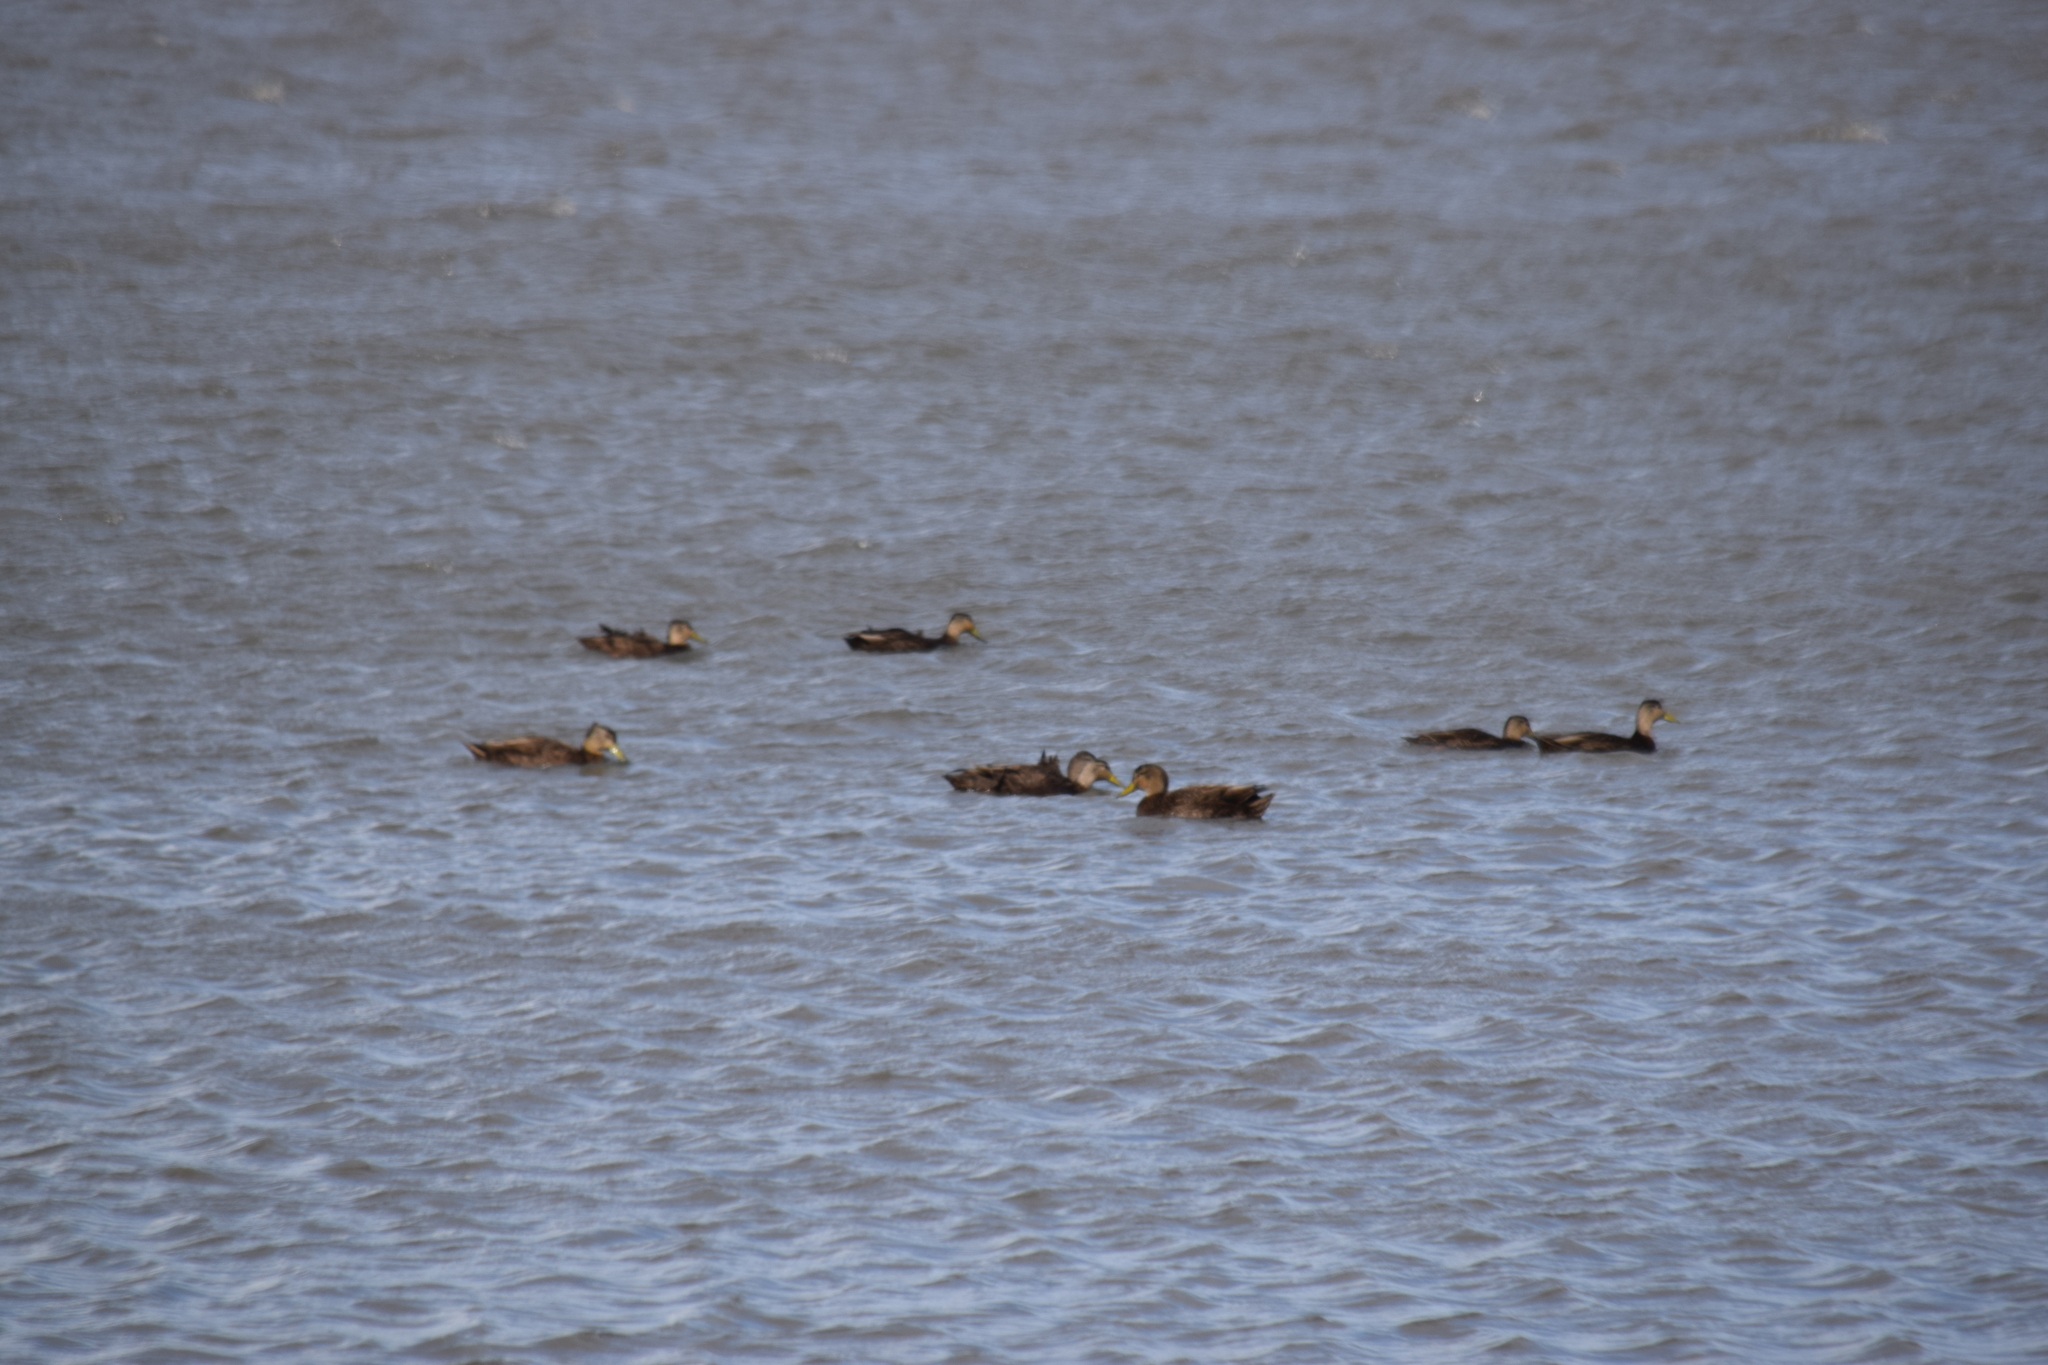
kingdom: Animalia
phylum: Chordata
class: Aves
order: Anseriformes
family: Anatidae
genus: Anas
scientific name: Anas rubripes
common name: American black duck
